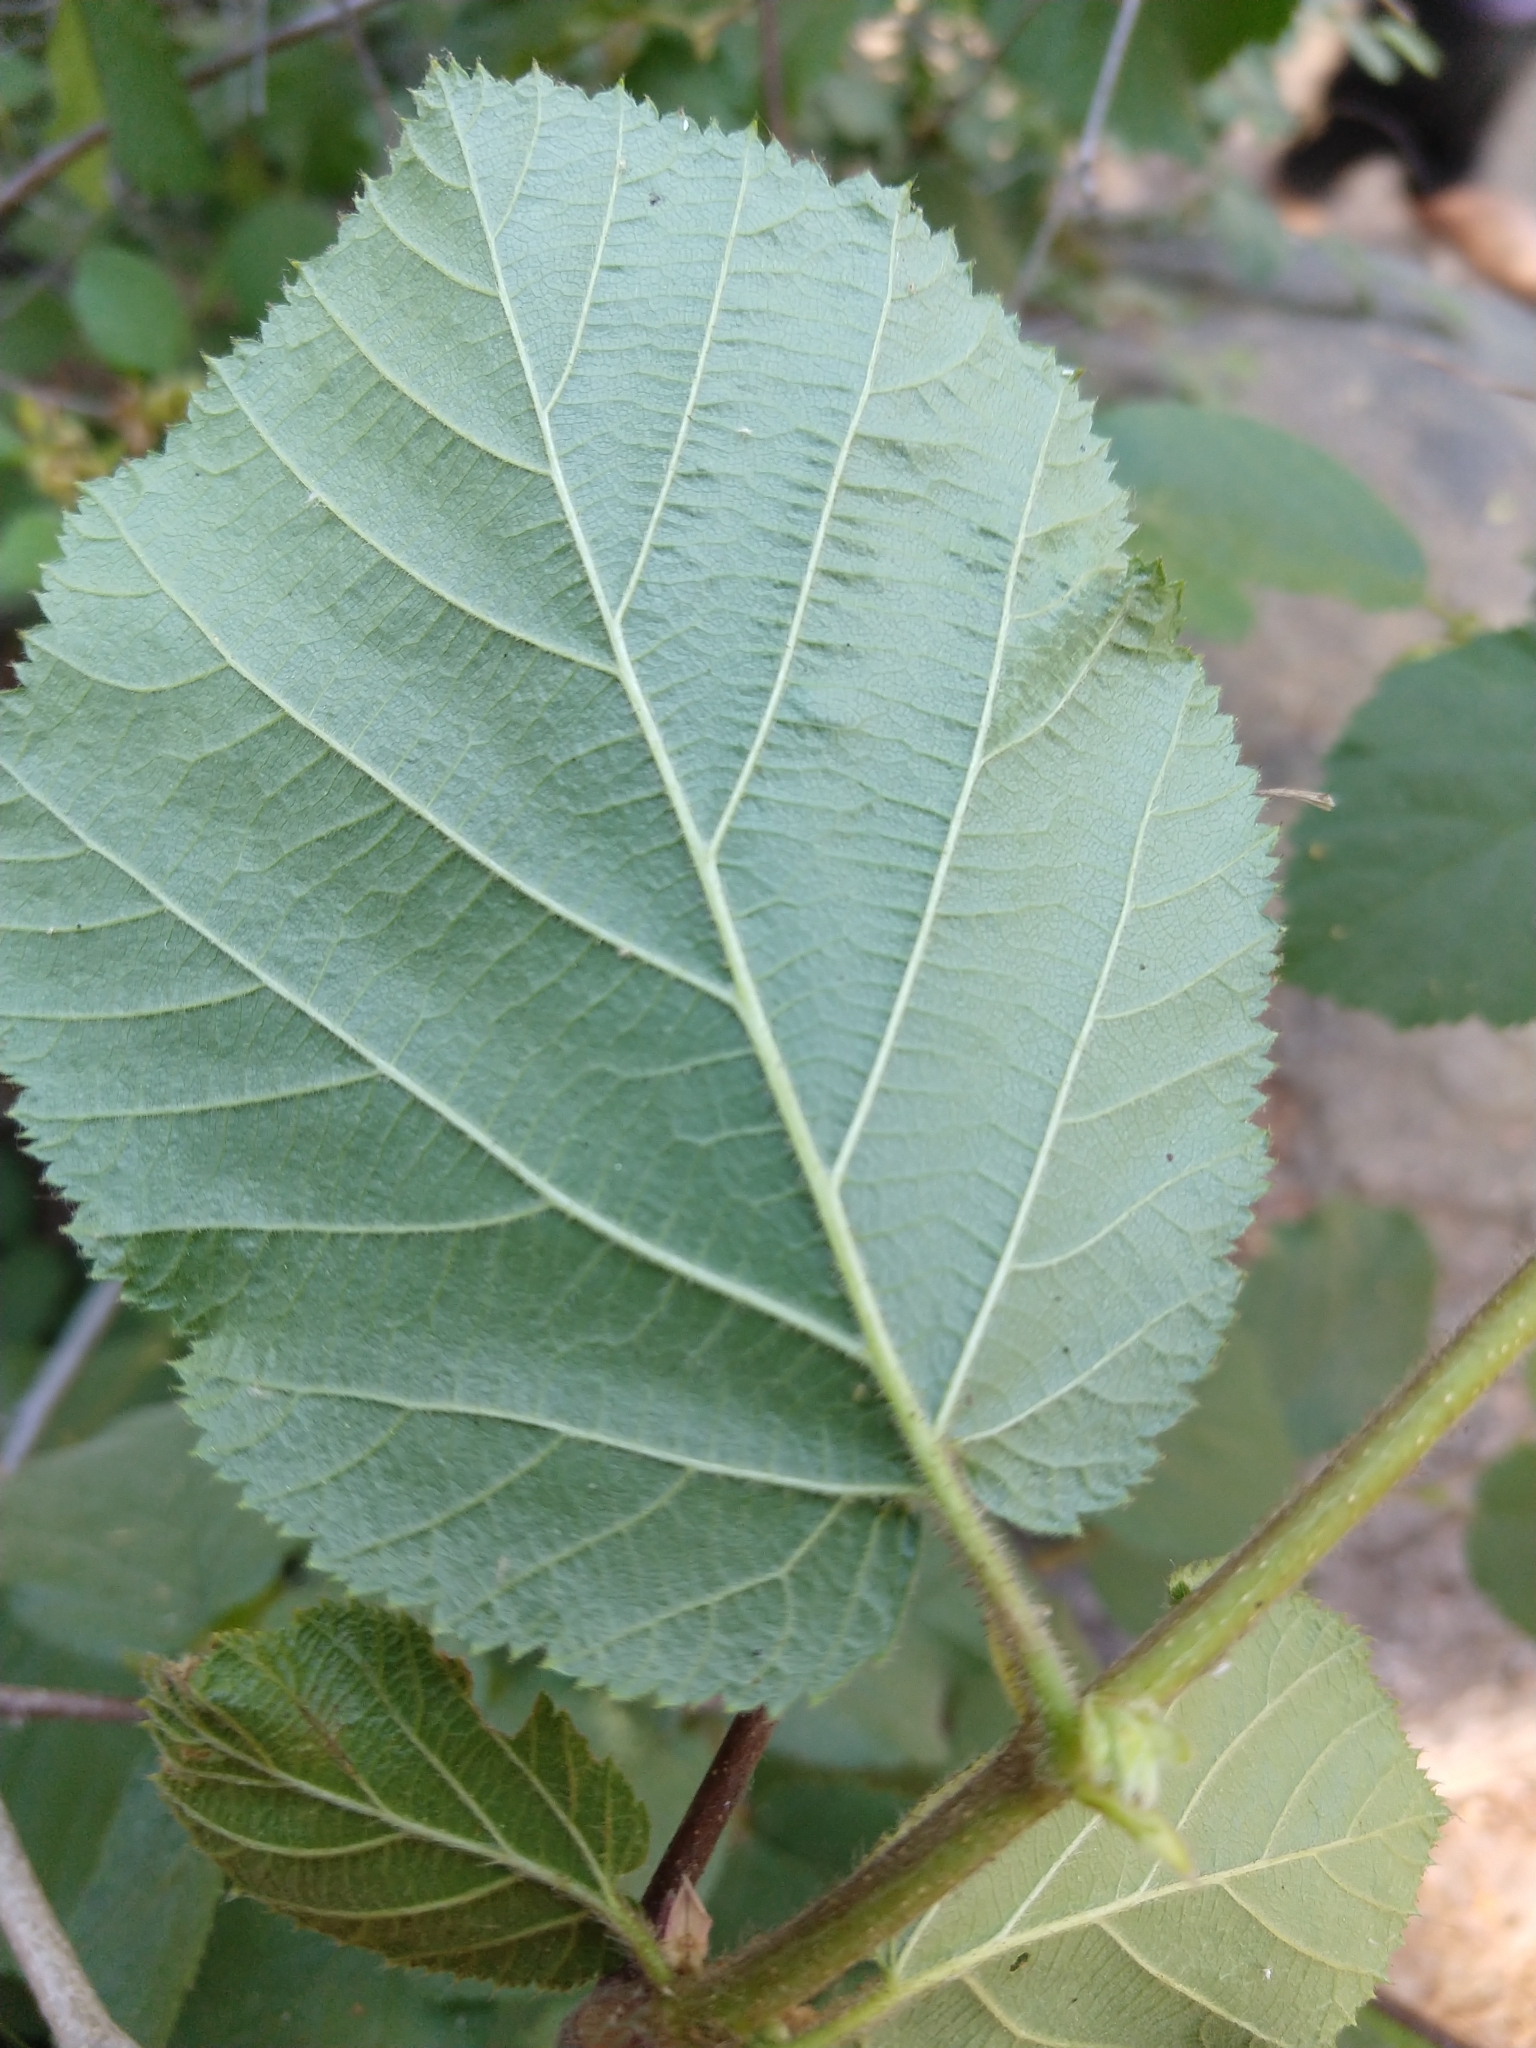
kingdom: Plantae
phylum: Tracheophyta
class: Magnoliopsida
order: Fagales
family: Betulaceae
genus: Corylus
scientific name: Corylus cornuta
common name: Beaked hazel
